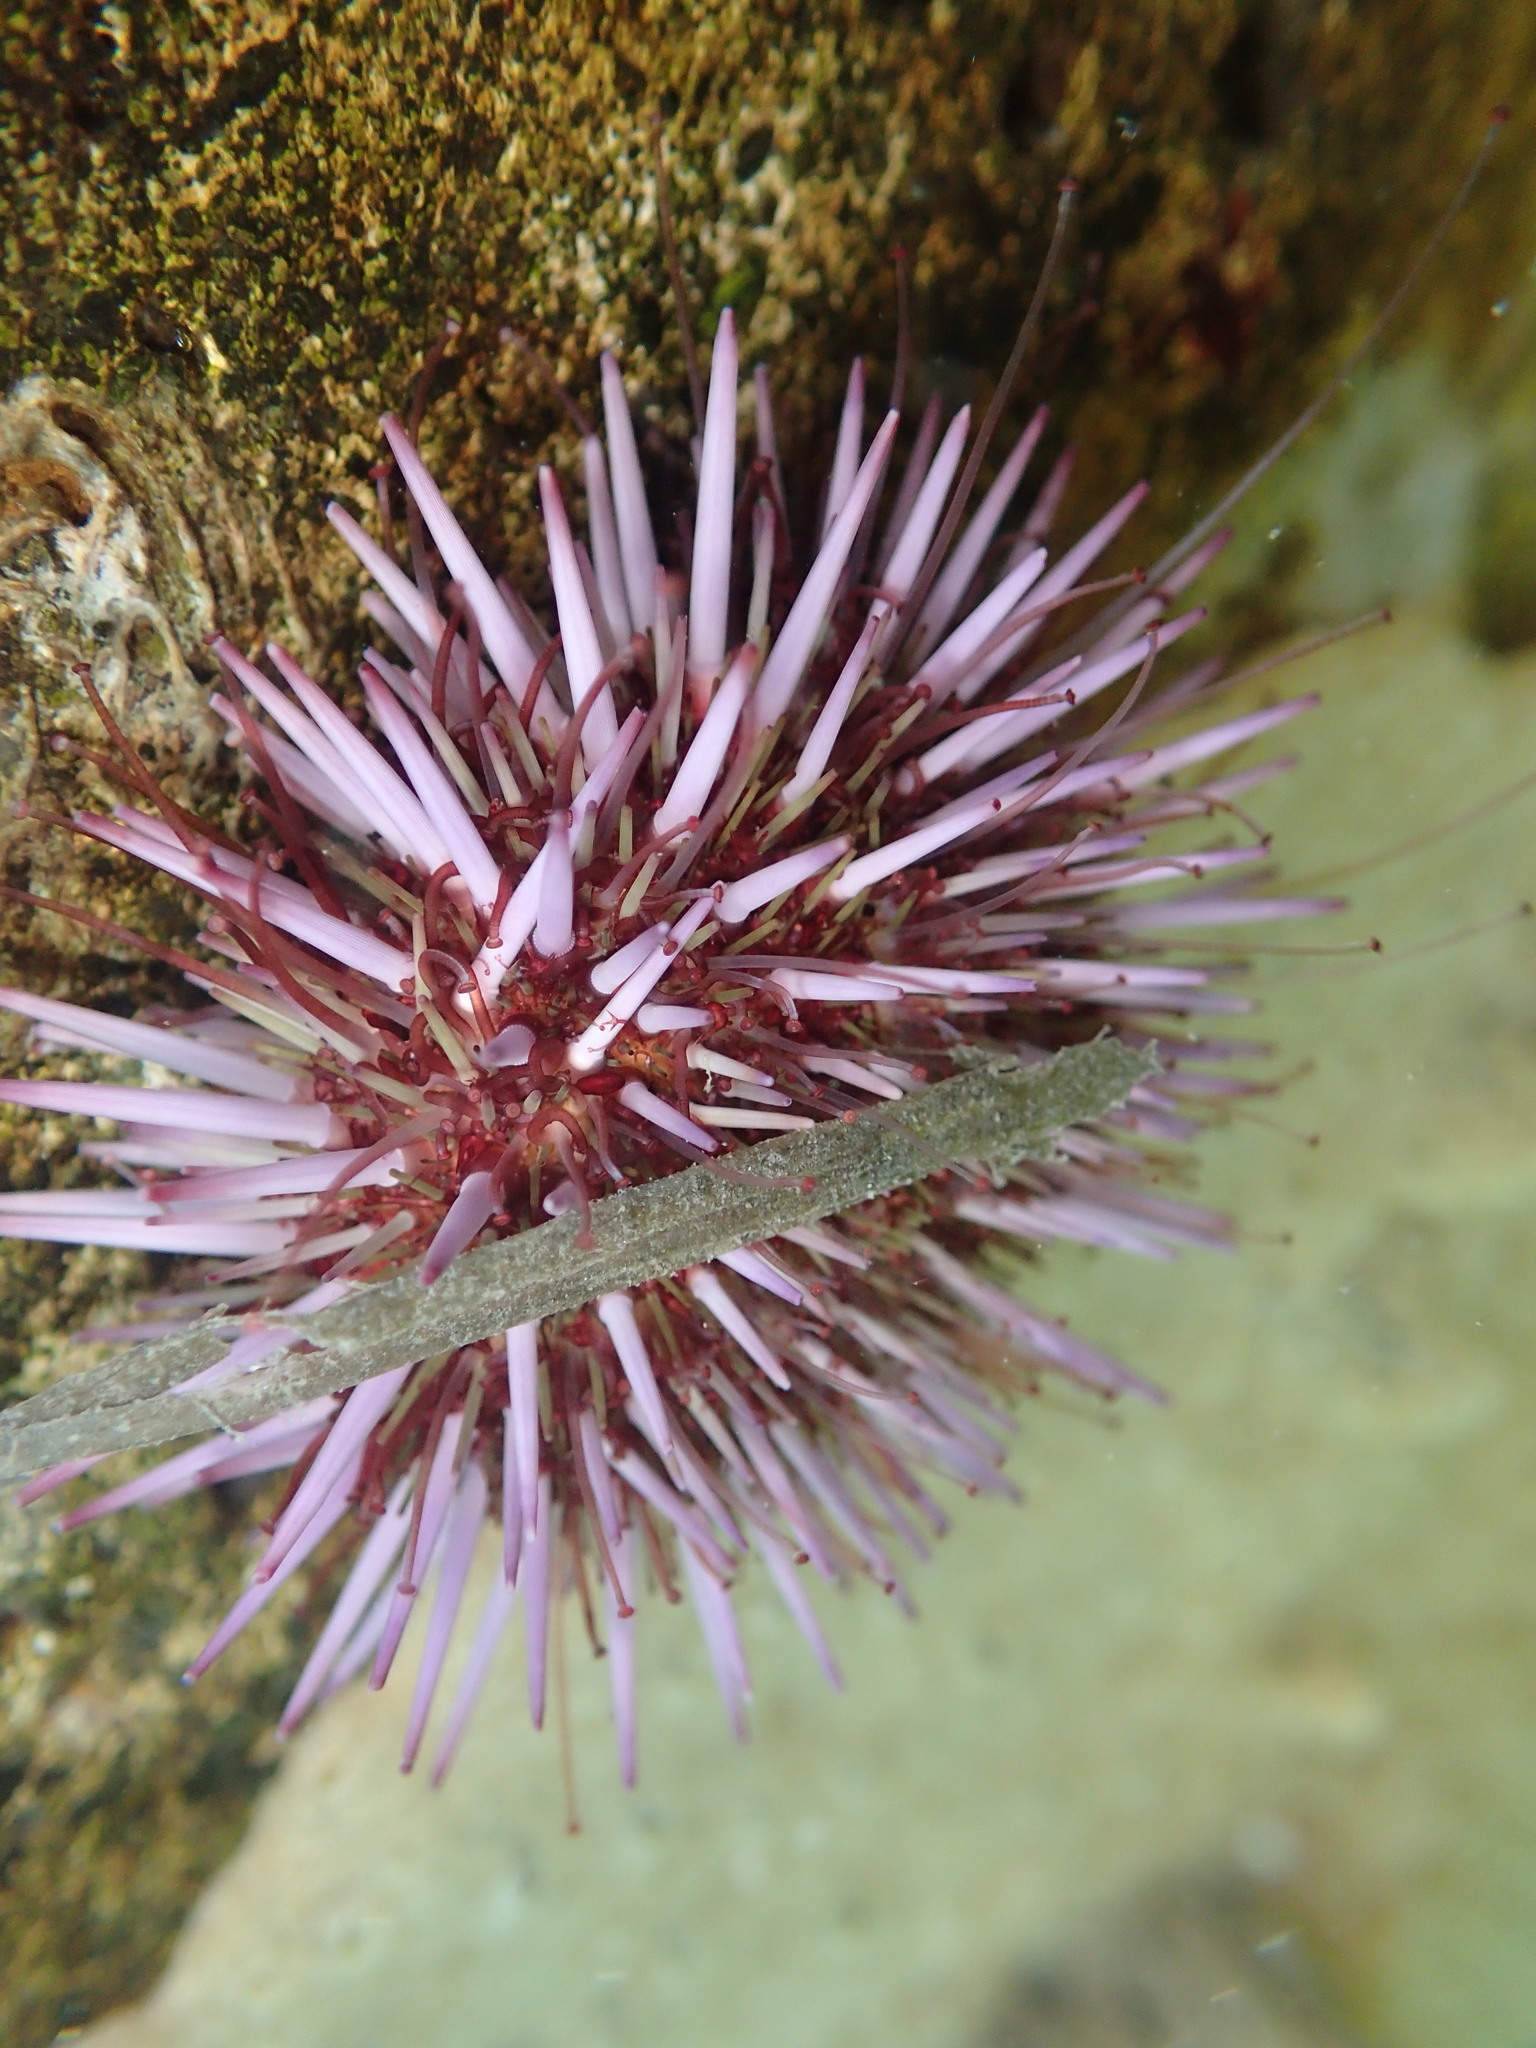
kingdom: Animalia
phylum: Echinodermata
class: Echinoidea
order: Camarodonta
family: Strongylocentrotidae
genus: Strongylocentrotus
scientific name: Strongylocentrotus purpuratus
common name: Purple sea urchin
